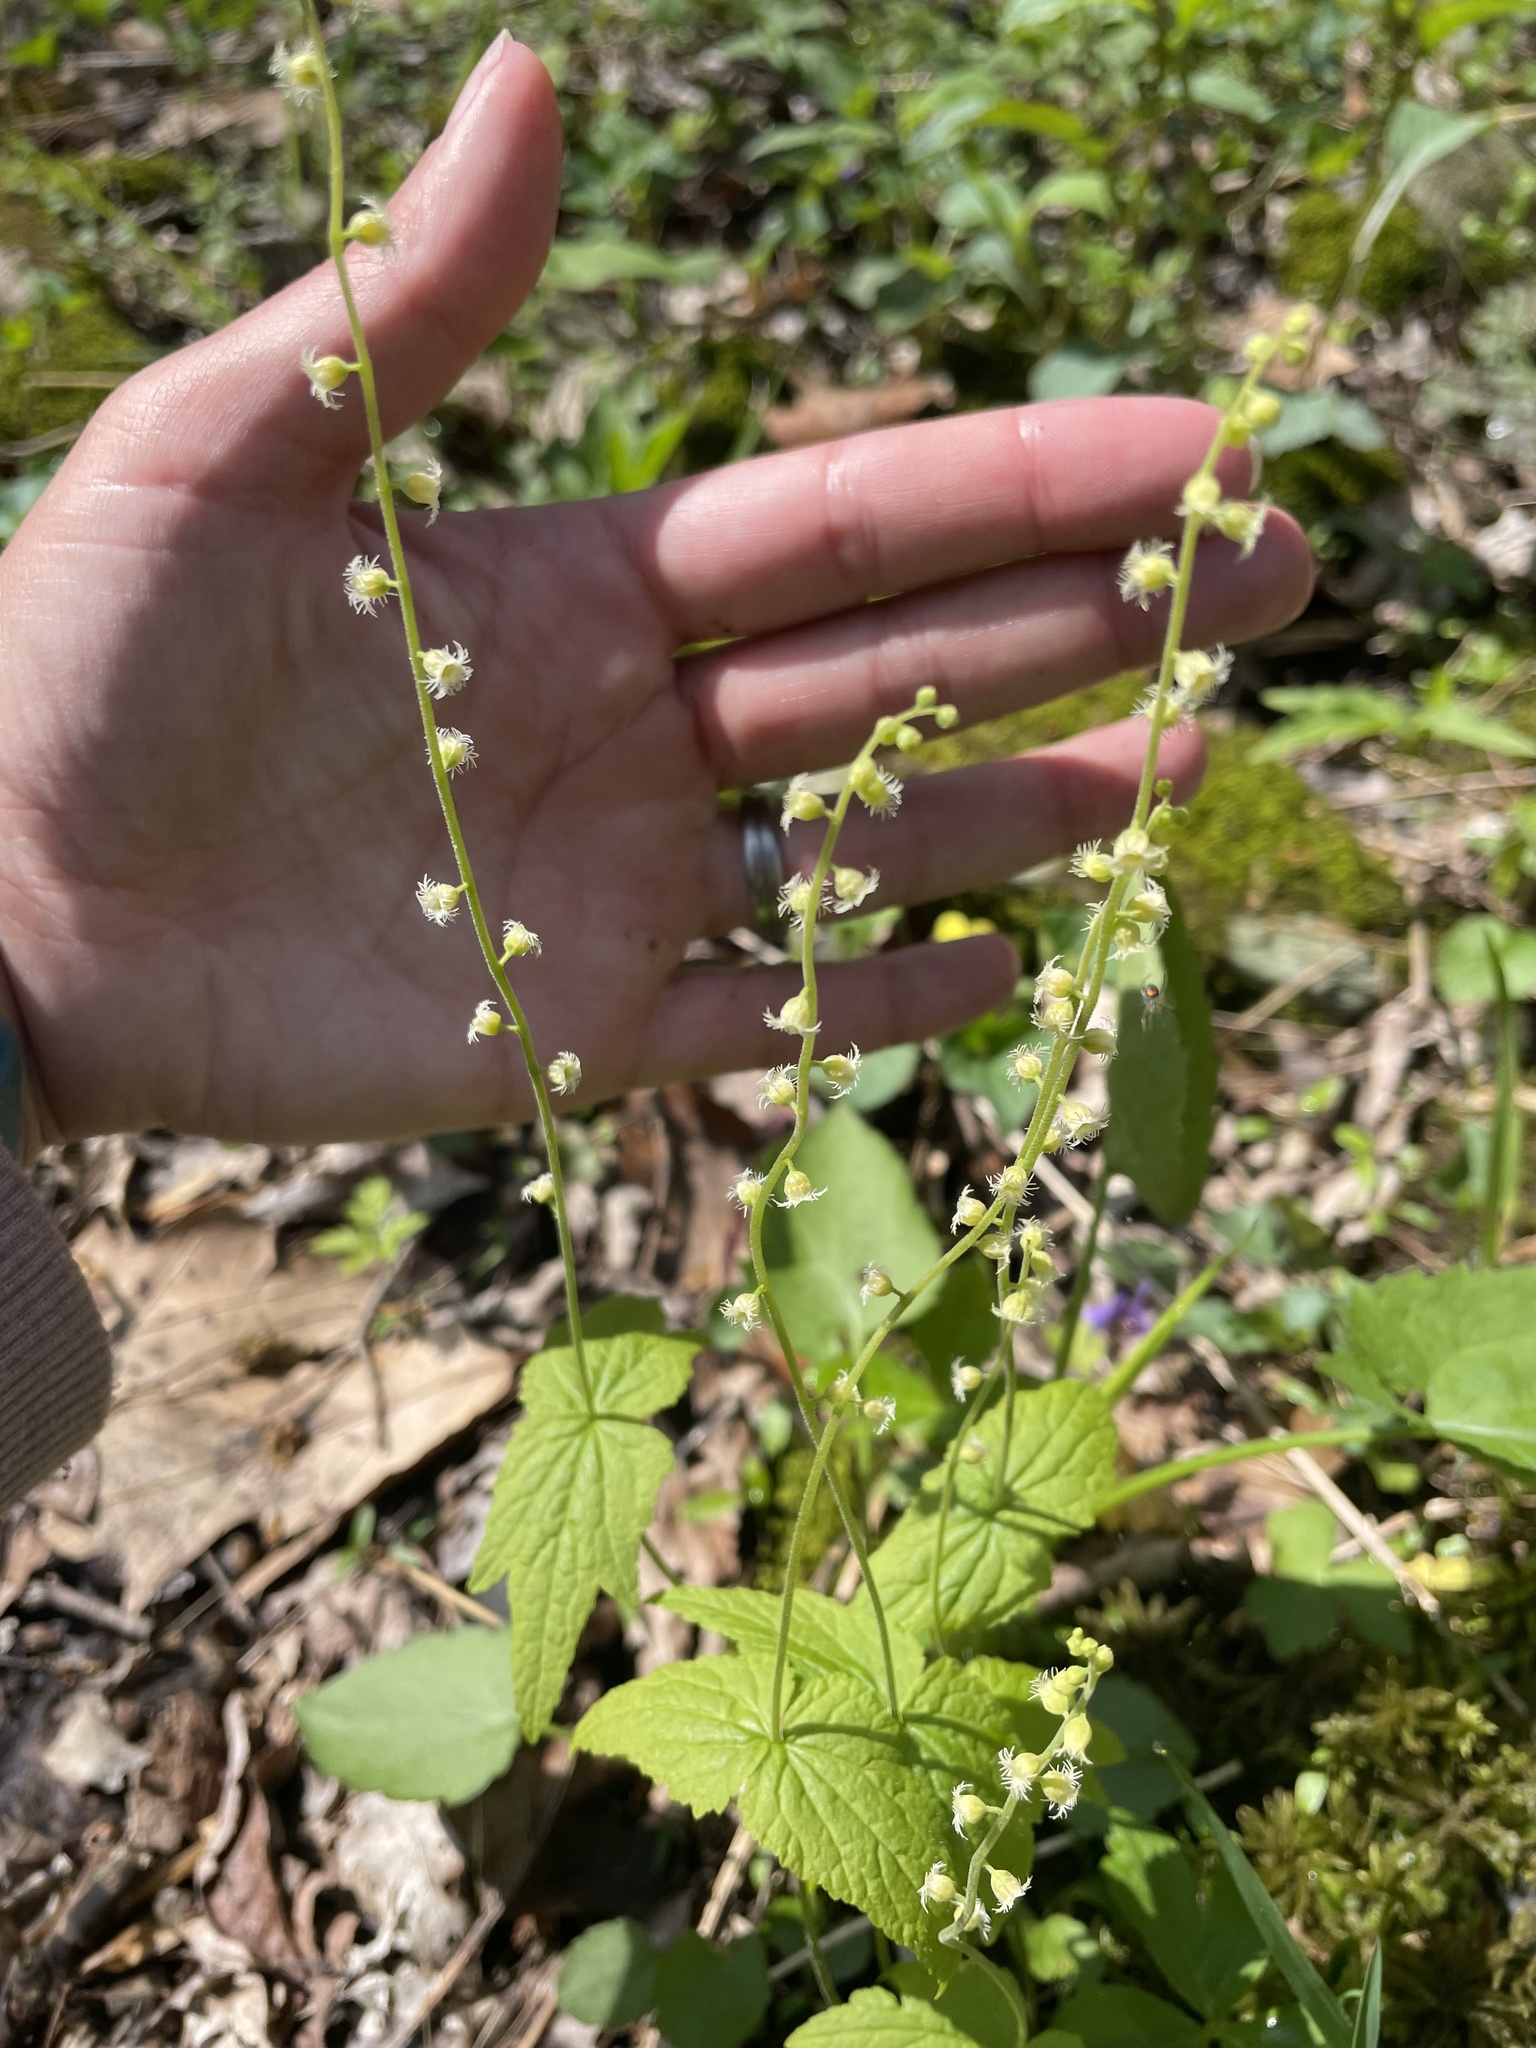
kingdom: Plantae
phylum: Tracheophyta
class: Magnoliopsida
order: Saxifragales
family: Saxifragaceae
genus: Mitella
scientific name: Mitella diphylla
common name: Coolwort
